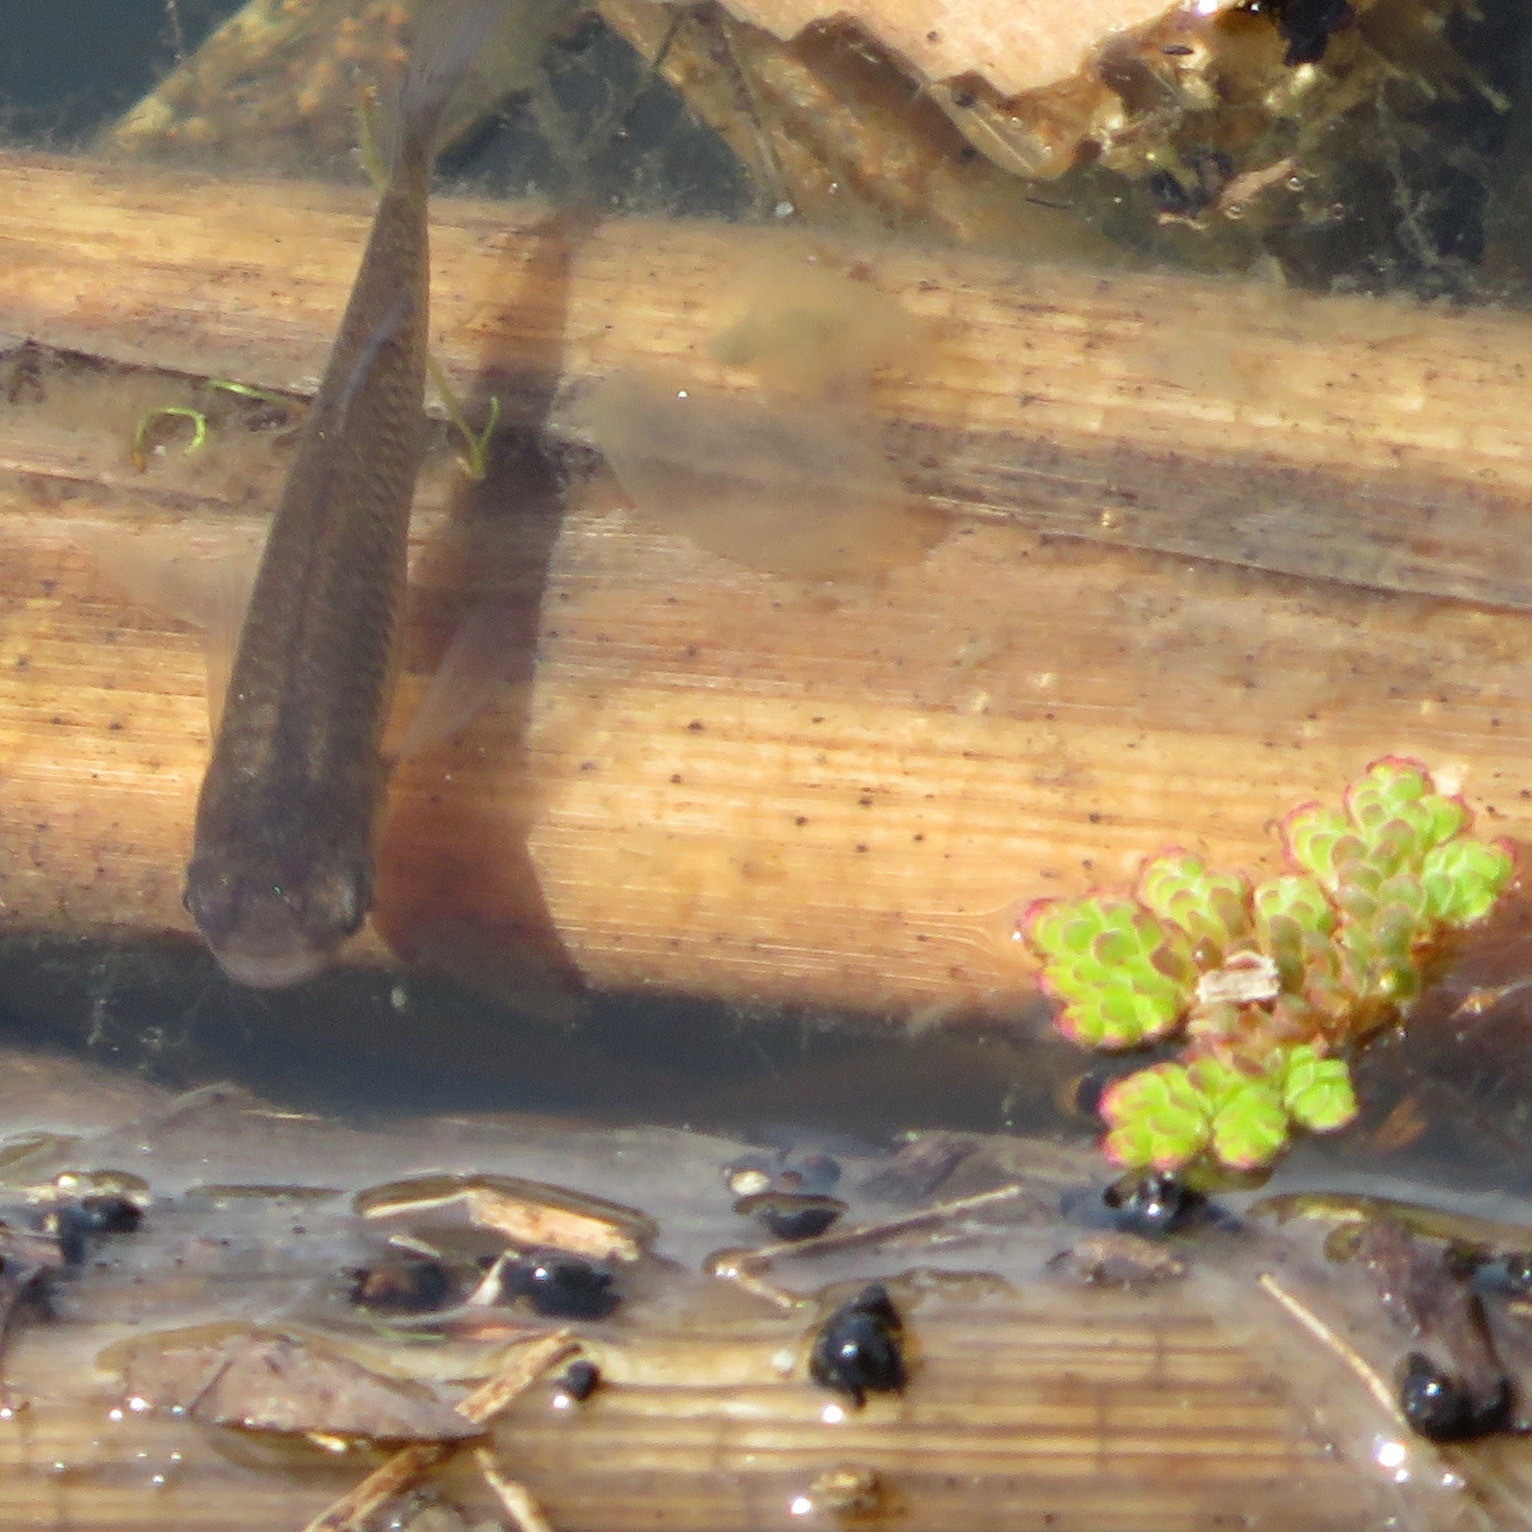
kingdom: Animalia
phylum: Chordata
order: Cyprinodontiformes
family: Poeciliidae
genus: Gambusia
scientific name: Gambusia affinis
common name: Mosquitofish
